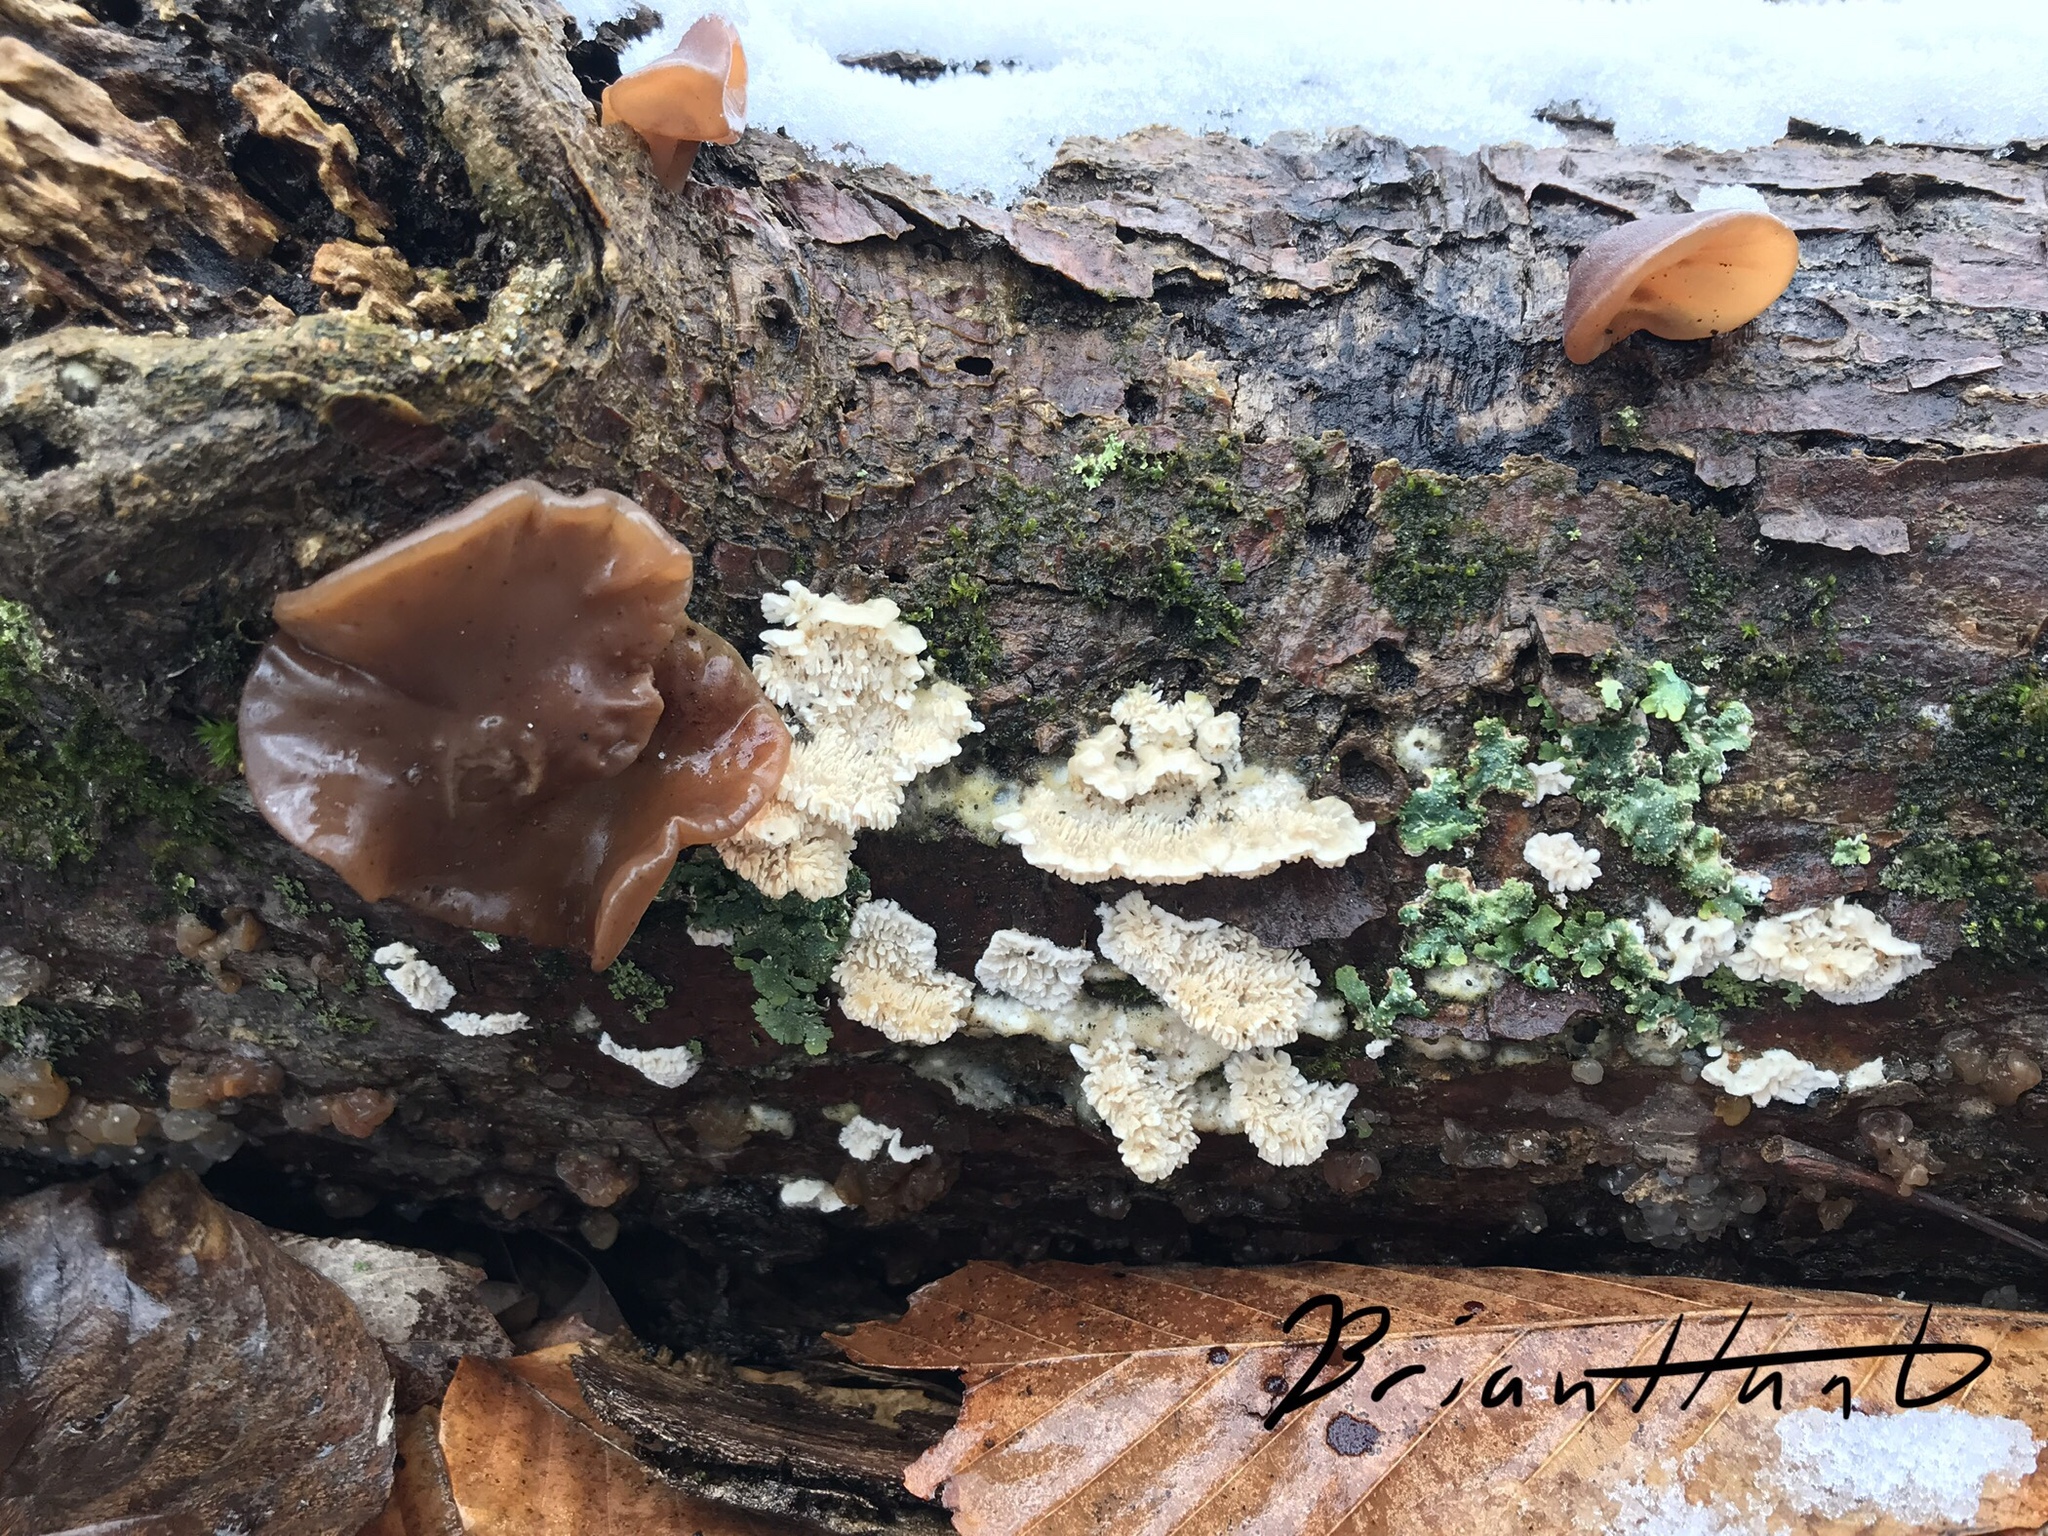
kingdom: Fungi
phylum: Basidiomycota
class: Agaricomycetes
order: Auriculariales
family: Auriculariaceae
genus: Auricularia
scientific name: Auricularia angiospermarum
